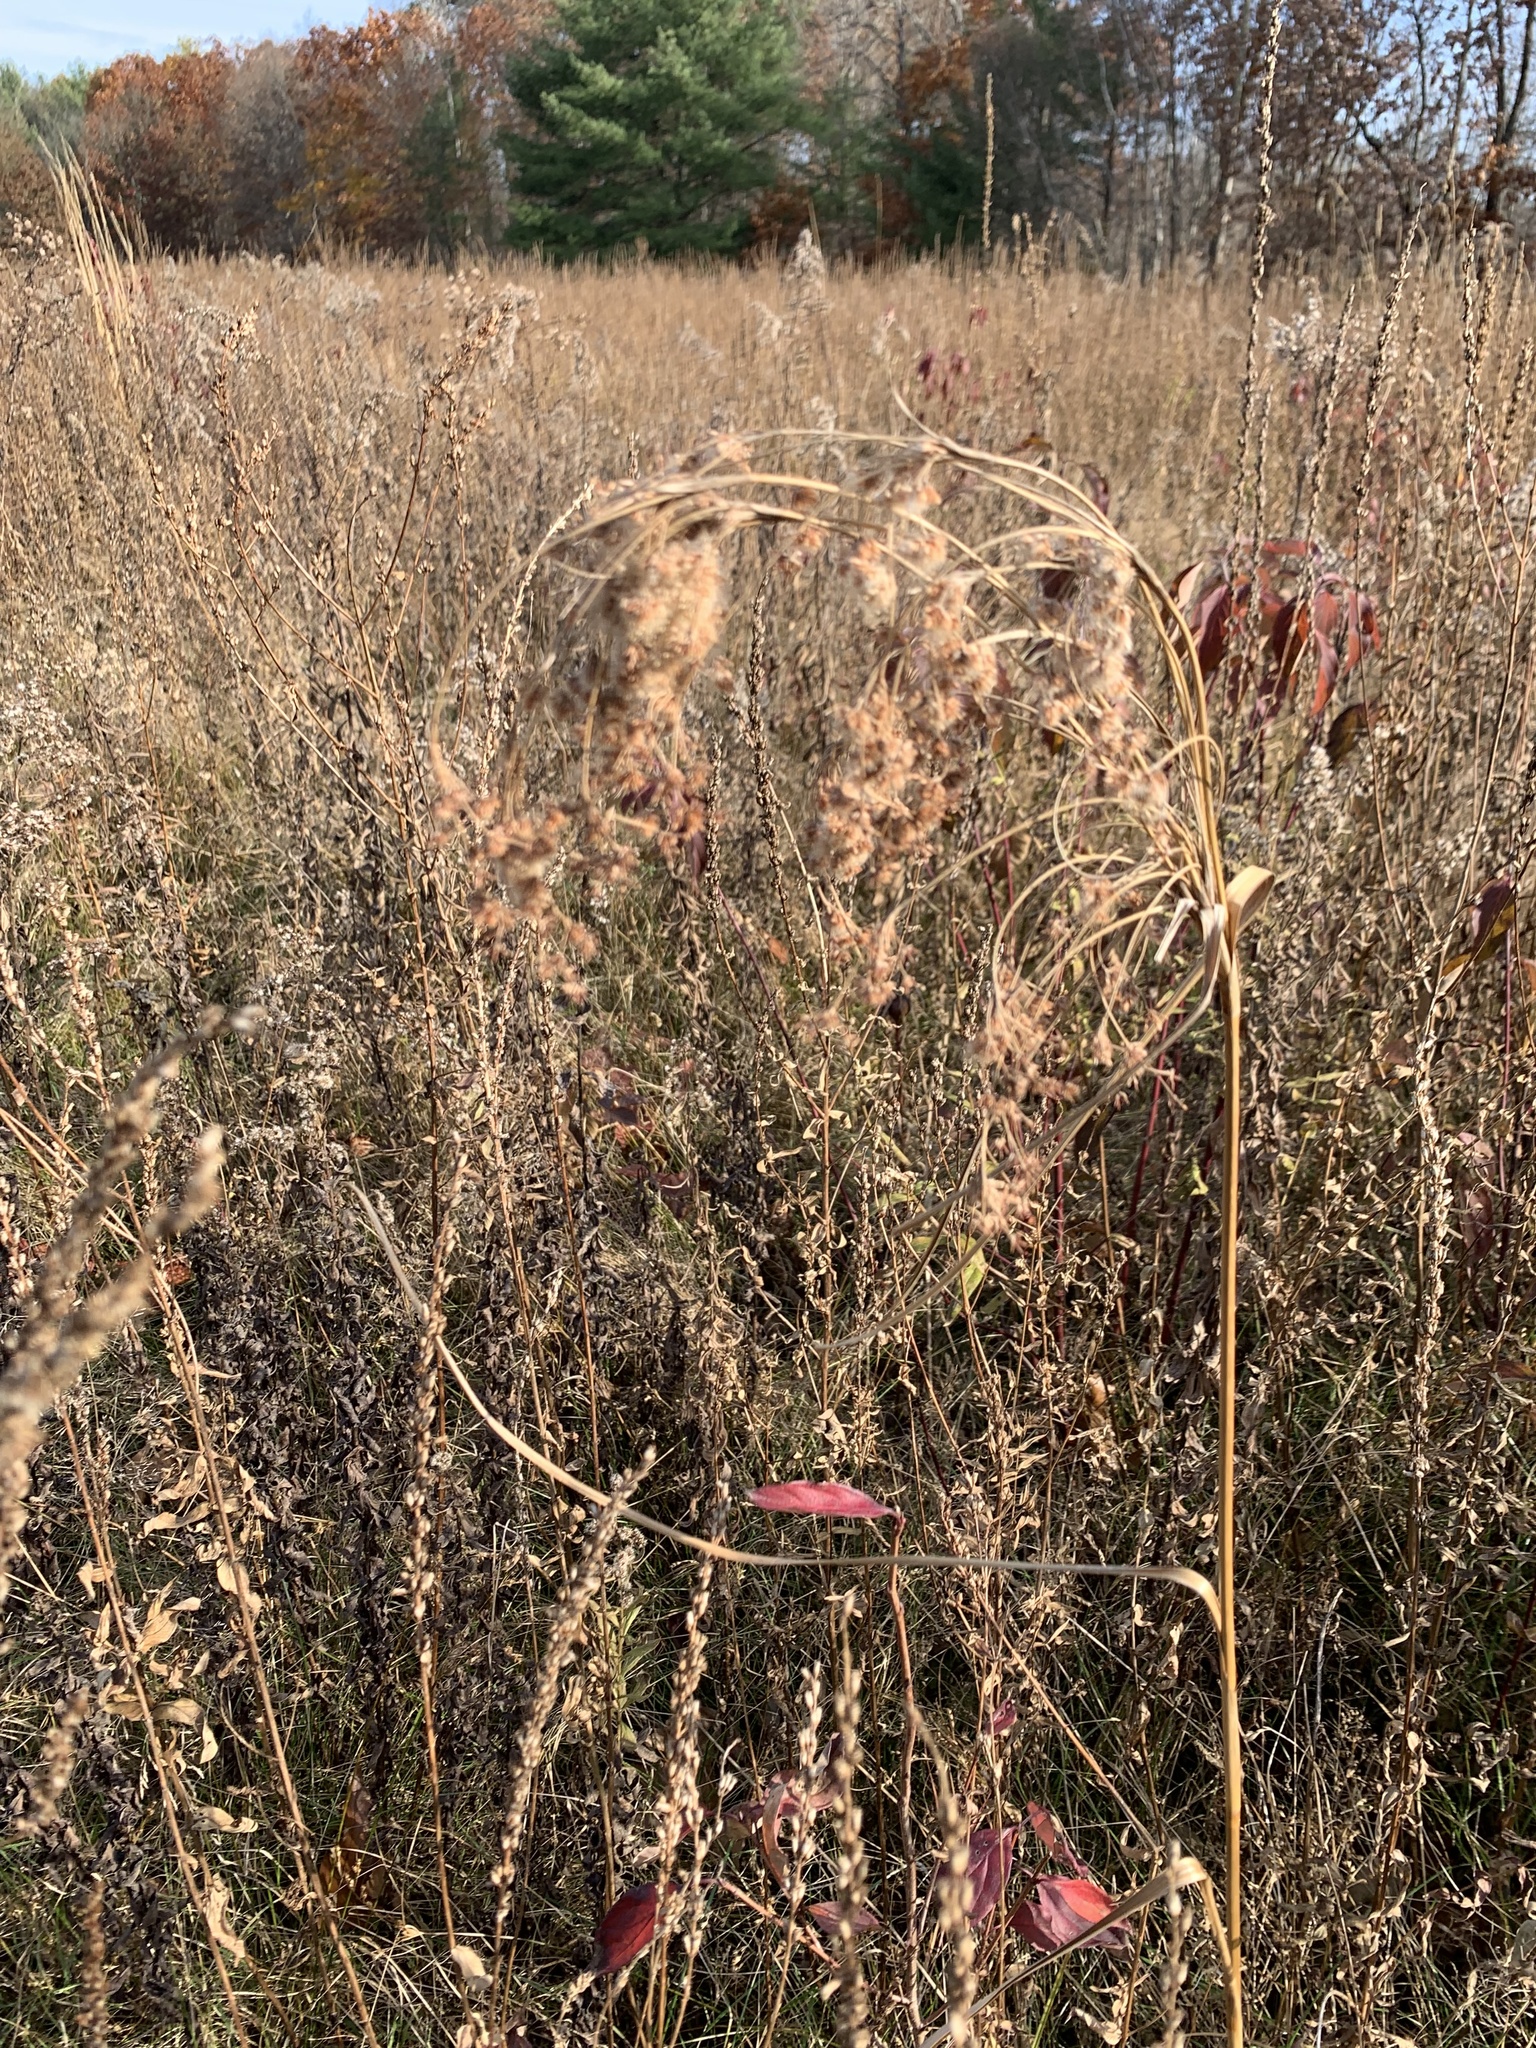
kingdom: Plantae
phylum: Tracheophyta
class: Liliopsida
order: Poales
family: Cyperaceae
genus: Scirpus
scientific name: Scirpus cyperinus
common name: Black-sheathed bulrush
